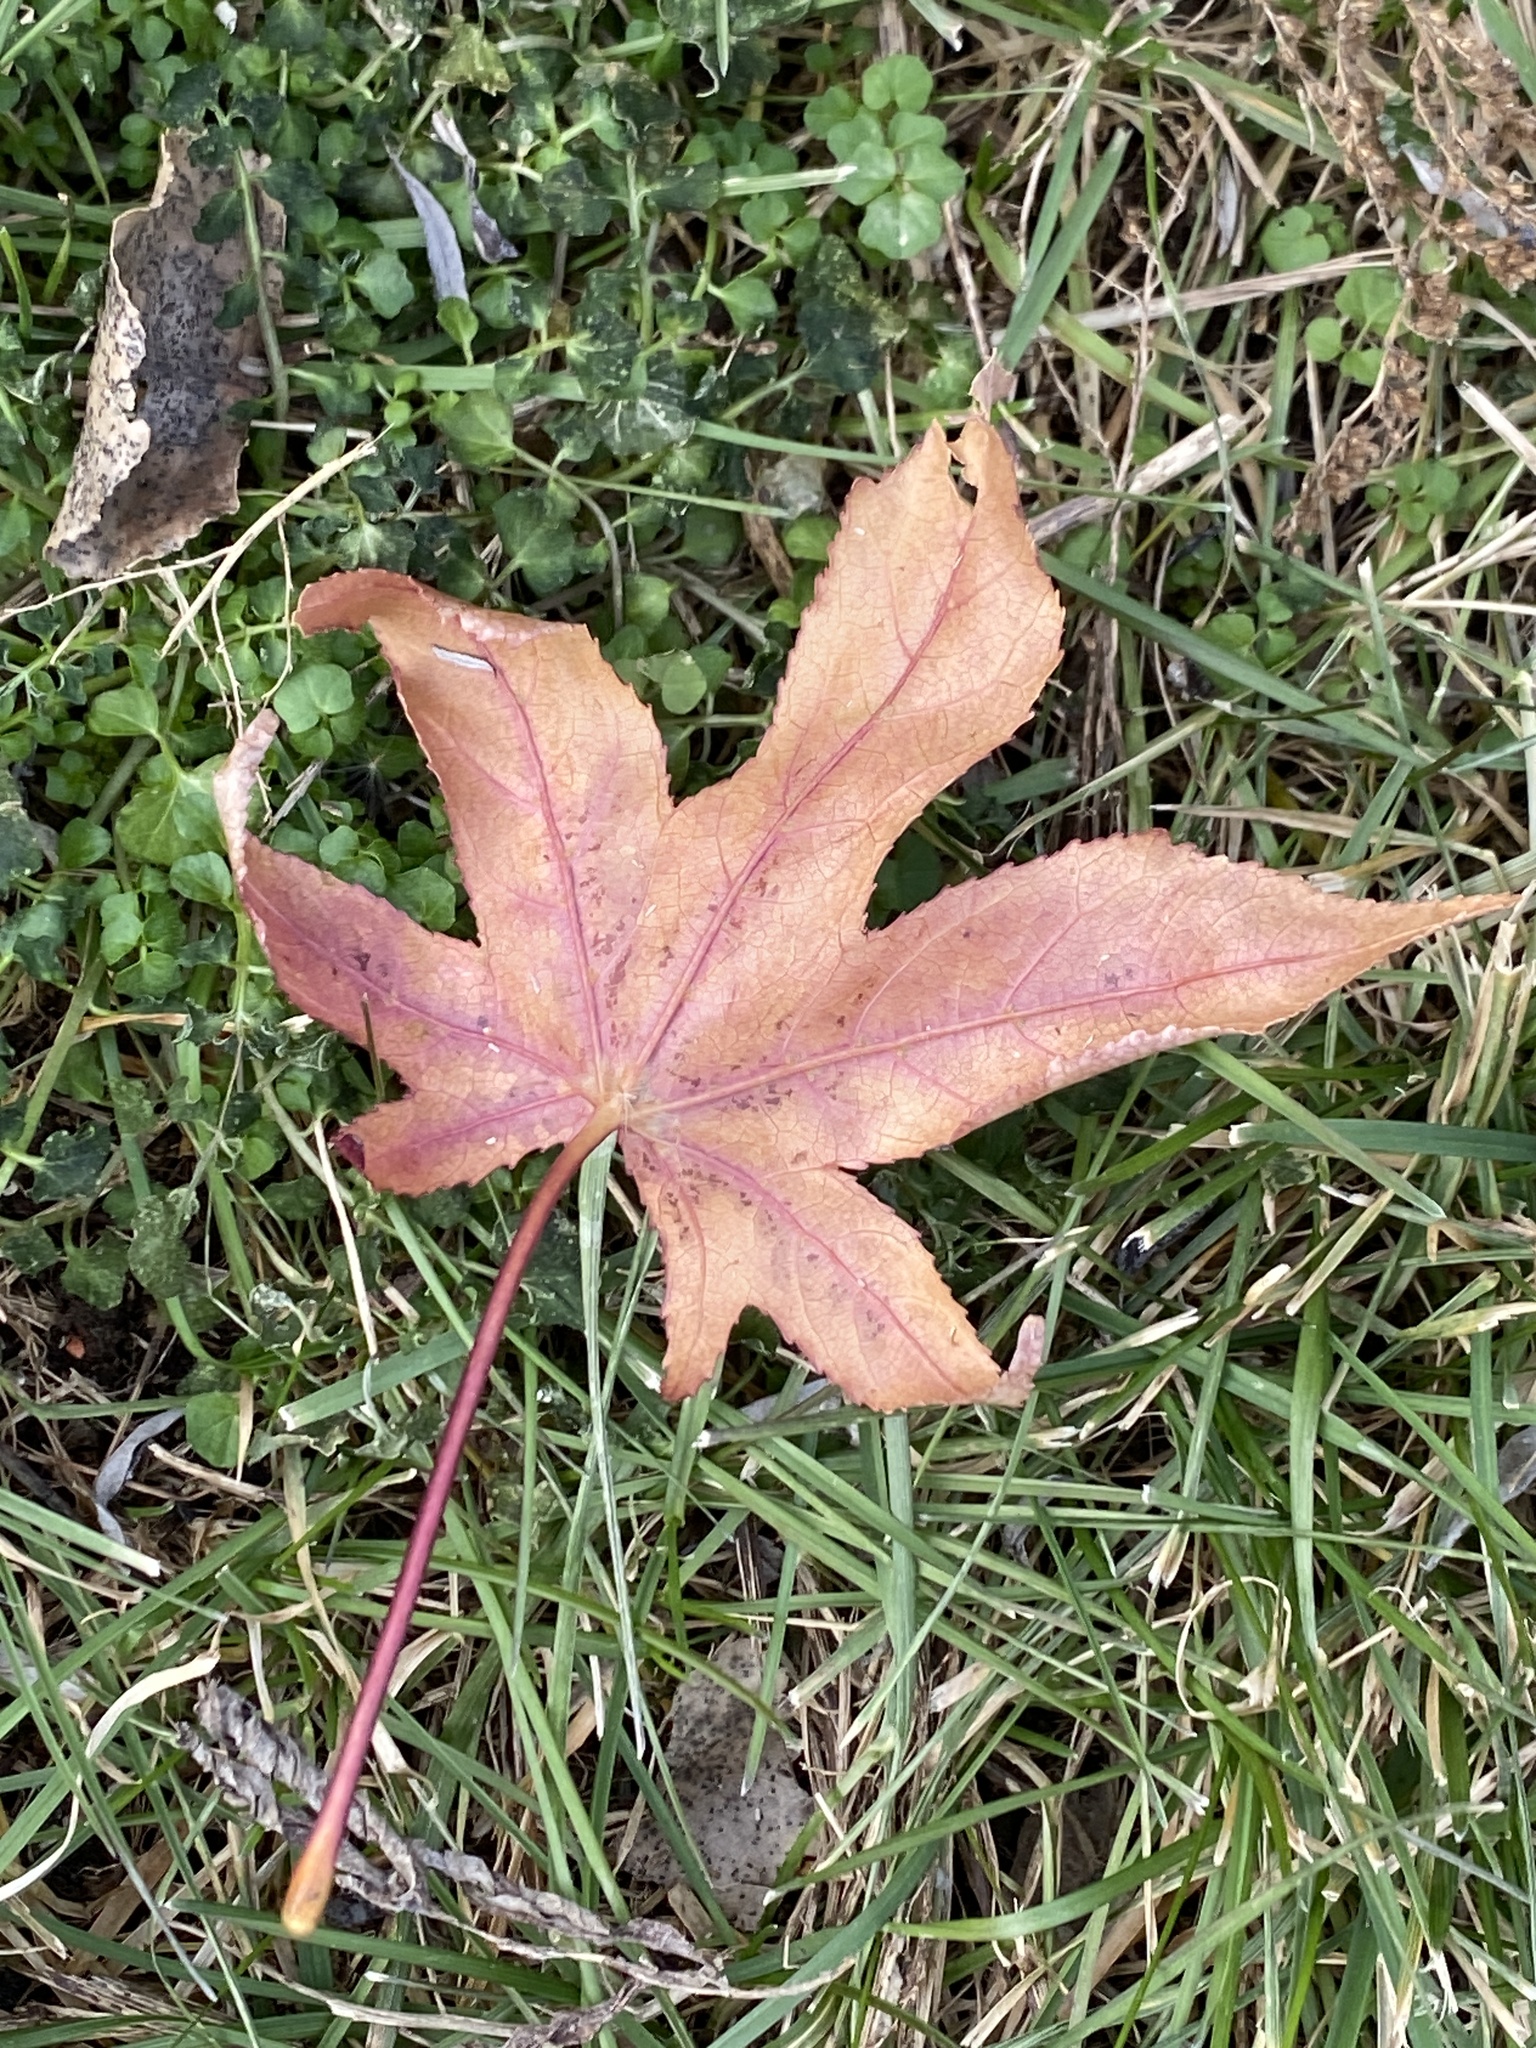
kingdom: Plantae
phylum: Tracheophyta
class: Magnoliopsida
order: Saxifragales
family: Altingiaceae
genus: Liquidambar
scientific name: Liquidambar styraciflua
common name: Sweet gum
